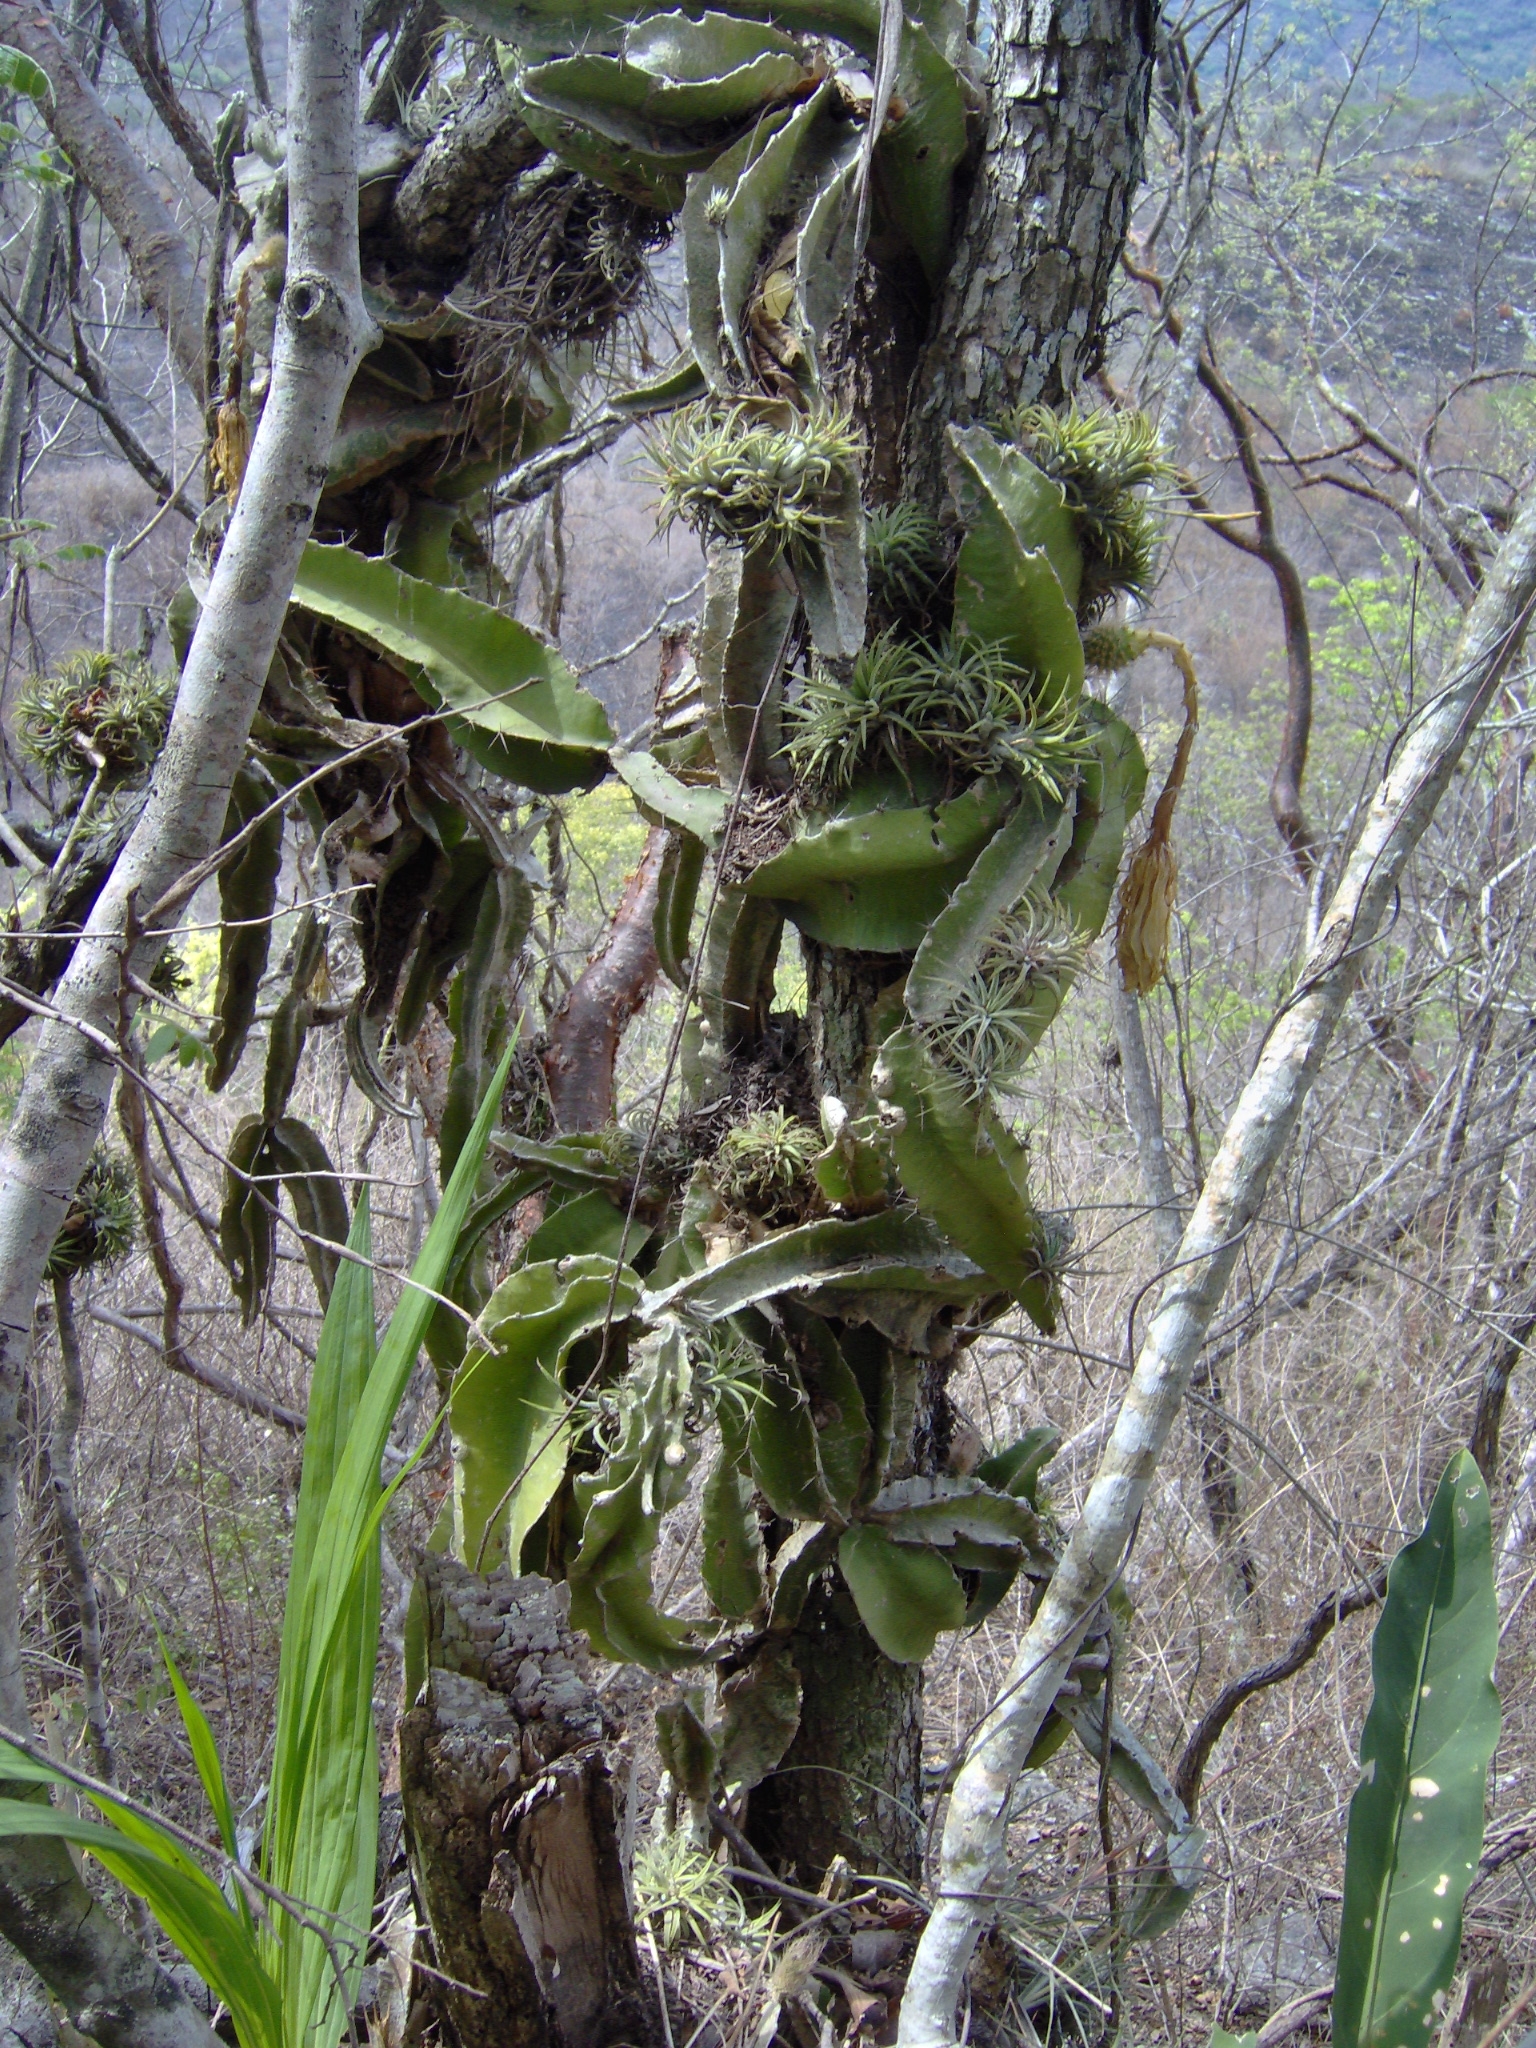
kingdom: Plantae
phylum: Tracheophyta
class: Magnoliopsida
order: Caryophyllales
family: Cactaceae
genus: Deamia
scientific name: Deamia testudo
